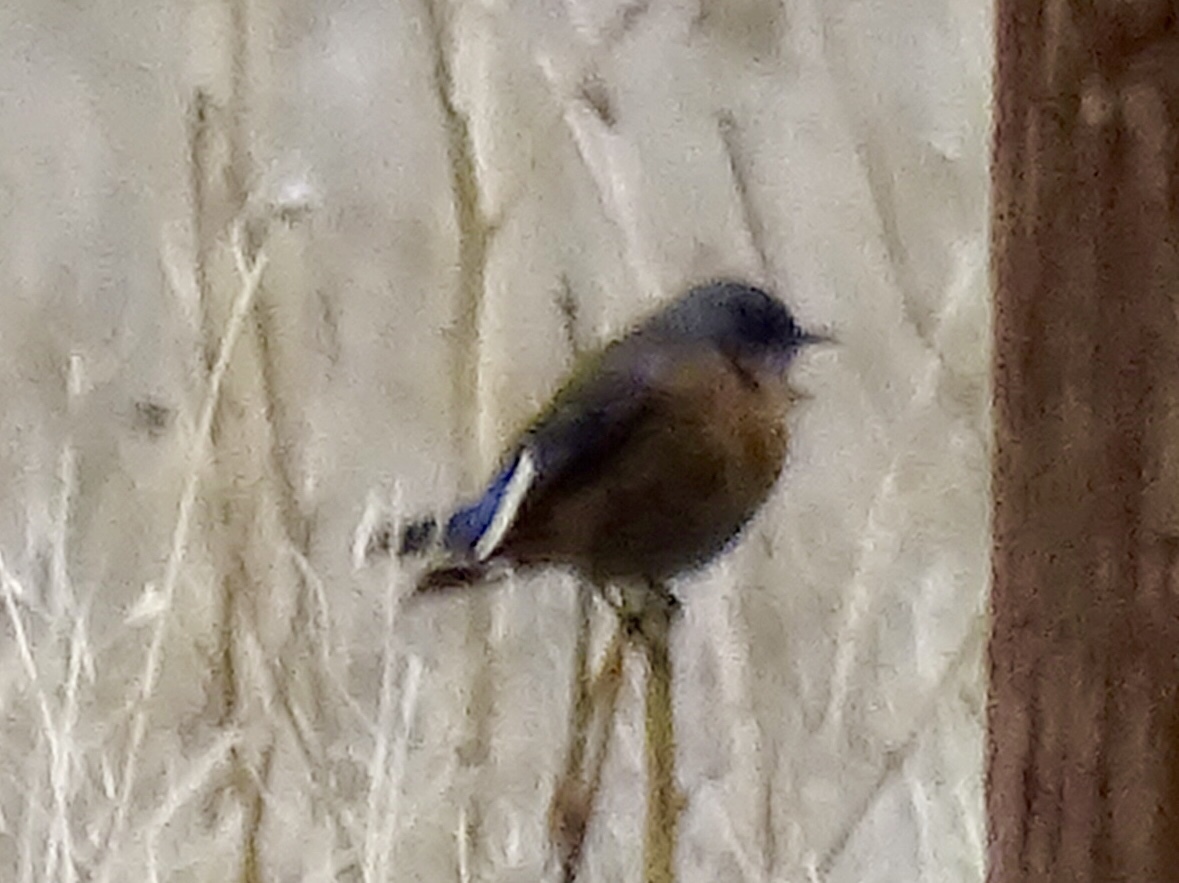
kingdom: Animalia
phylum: Chordata
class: Aves
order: Passeriformes
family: Turdidae
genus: Sialia
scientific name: Sialia mexicana
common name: Western bluebird
